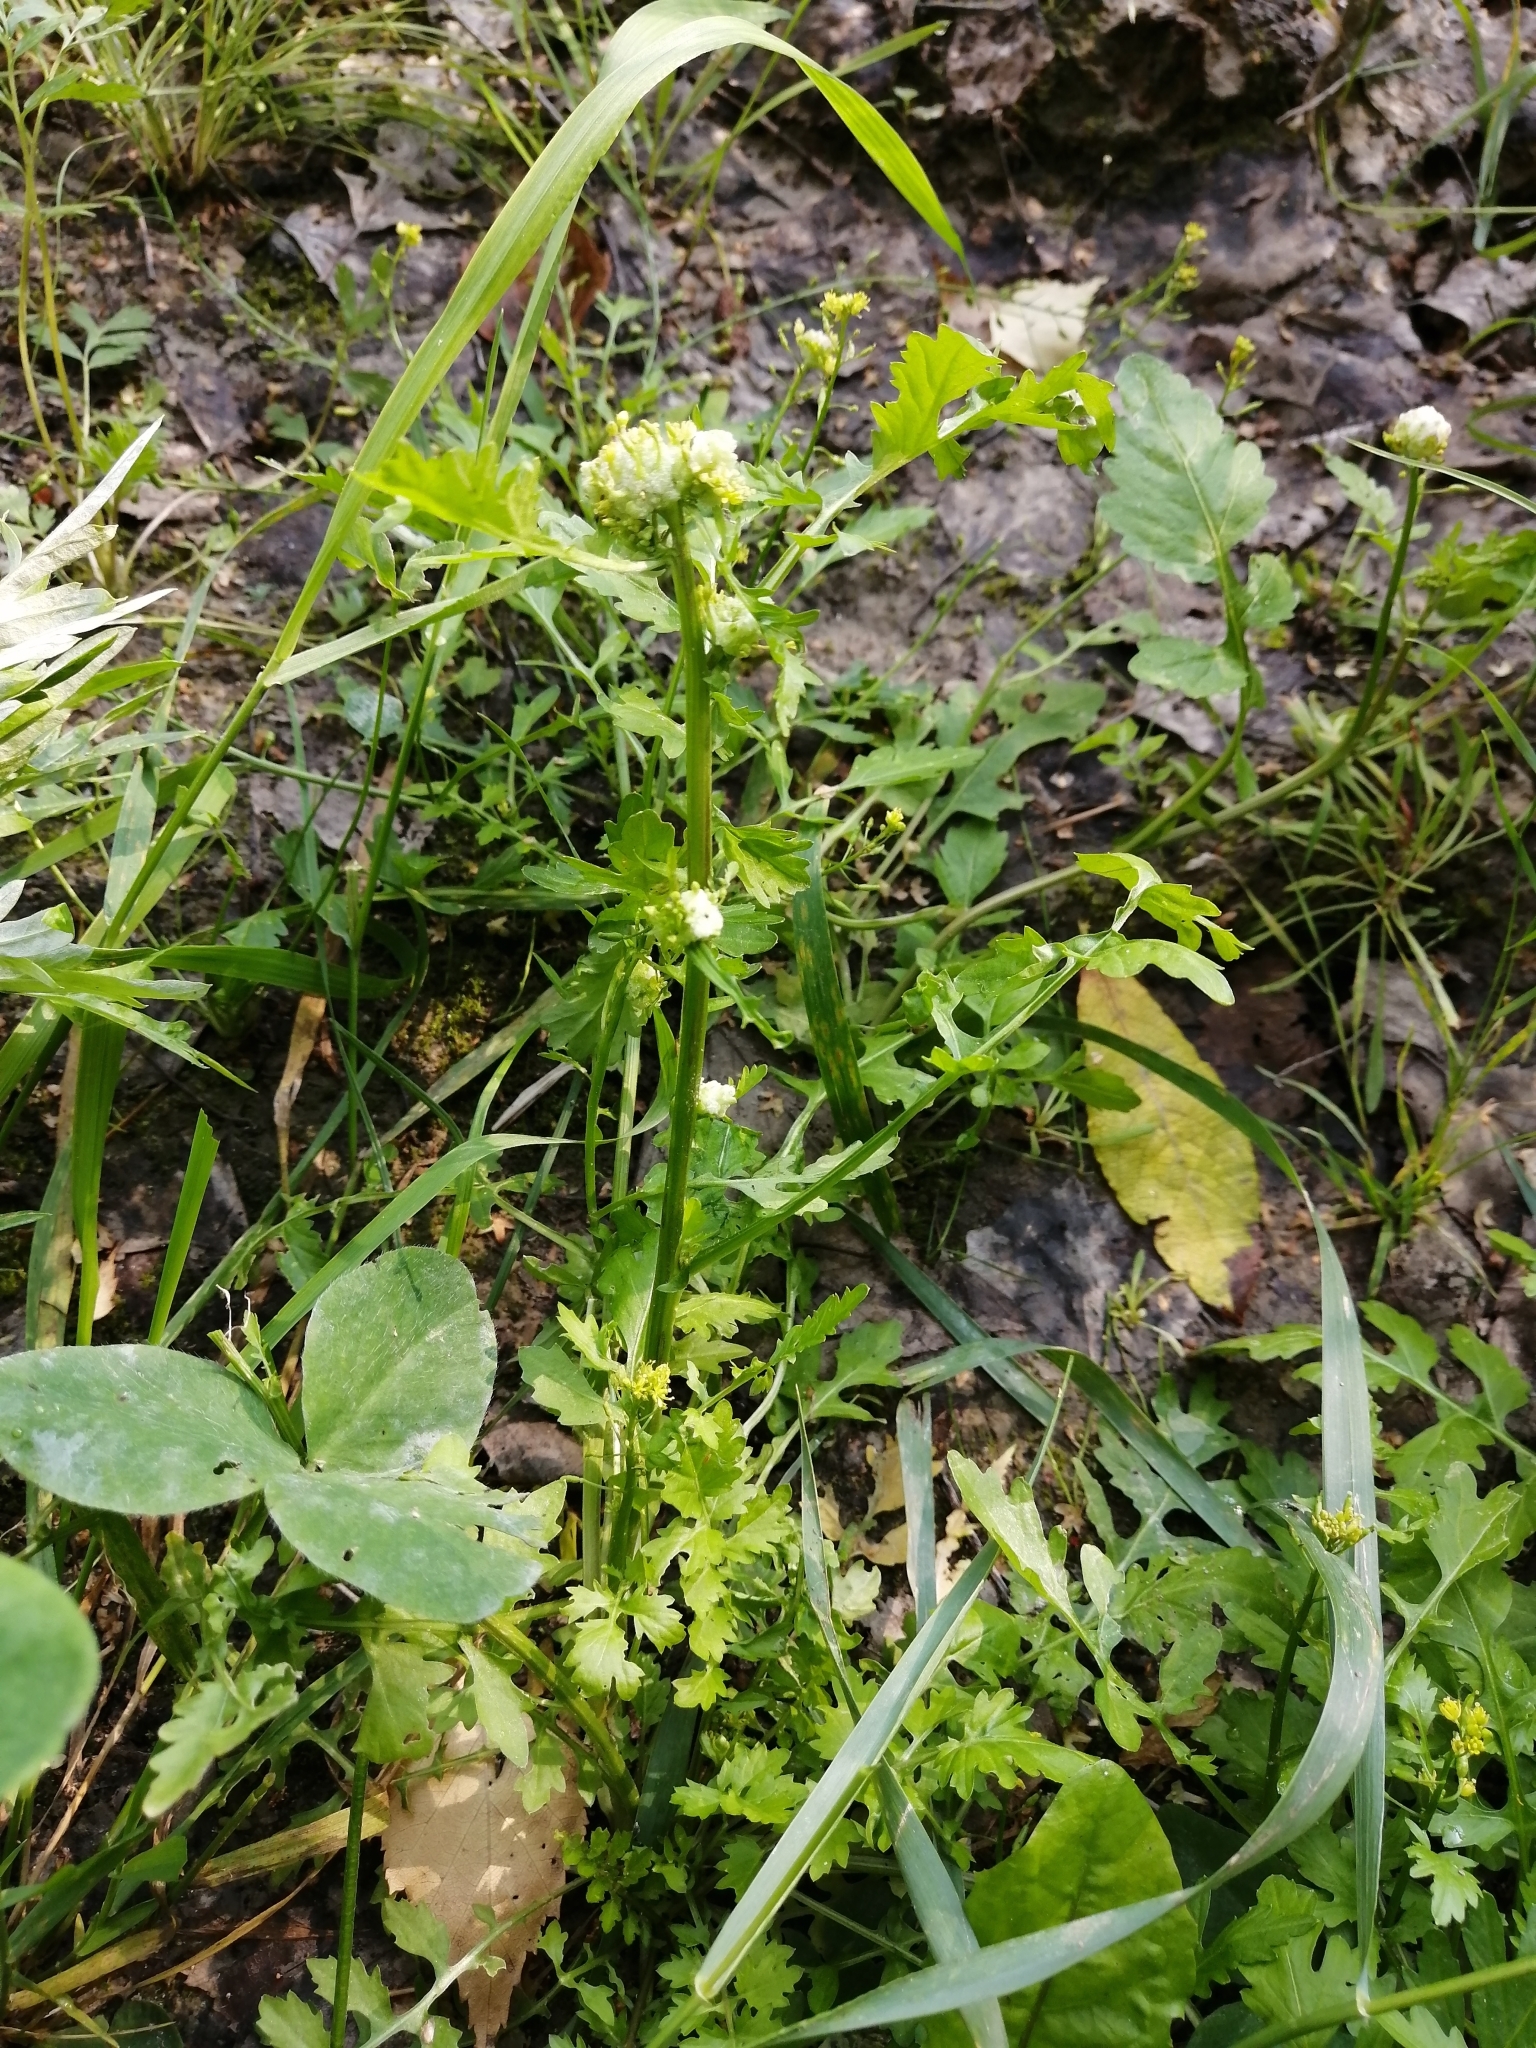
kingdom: Plantae
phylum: Tracheophyta
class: Magnoliopsida
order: Brassicales
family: Brassicaceae
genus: Rorippa
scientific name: Rorippa palustris
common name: Marsh yellow-cress
